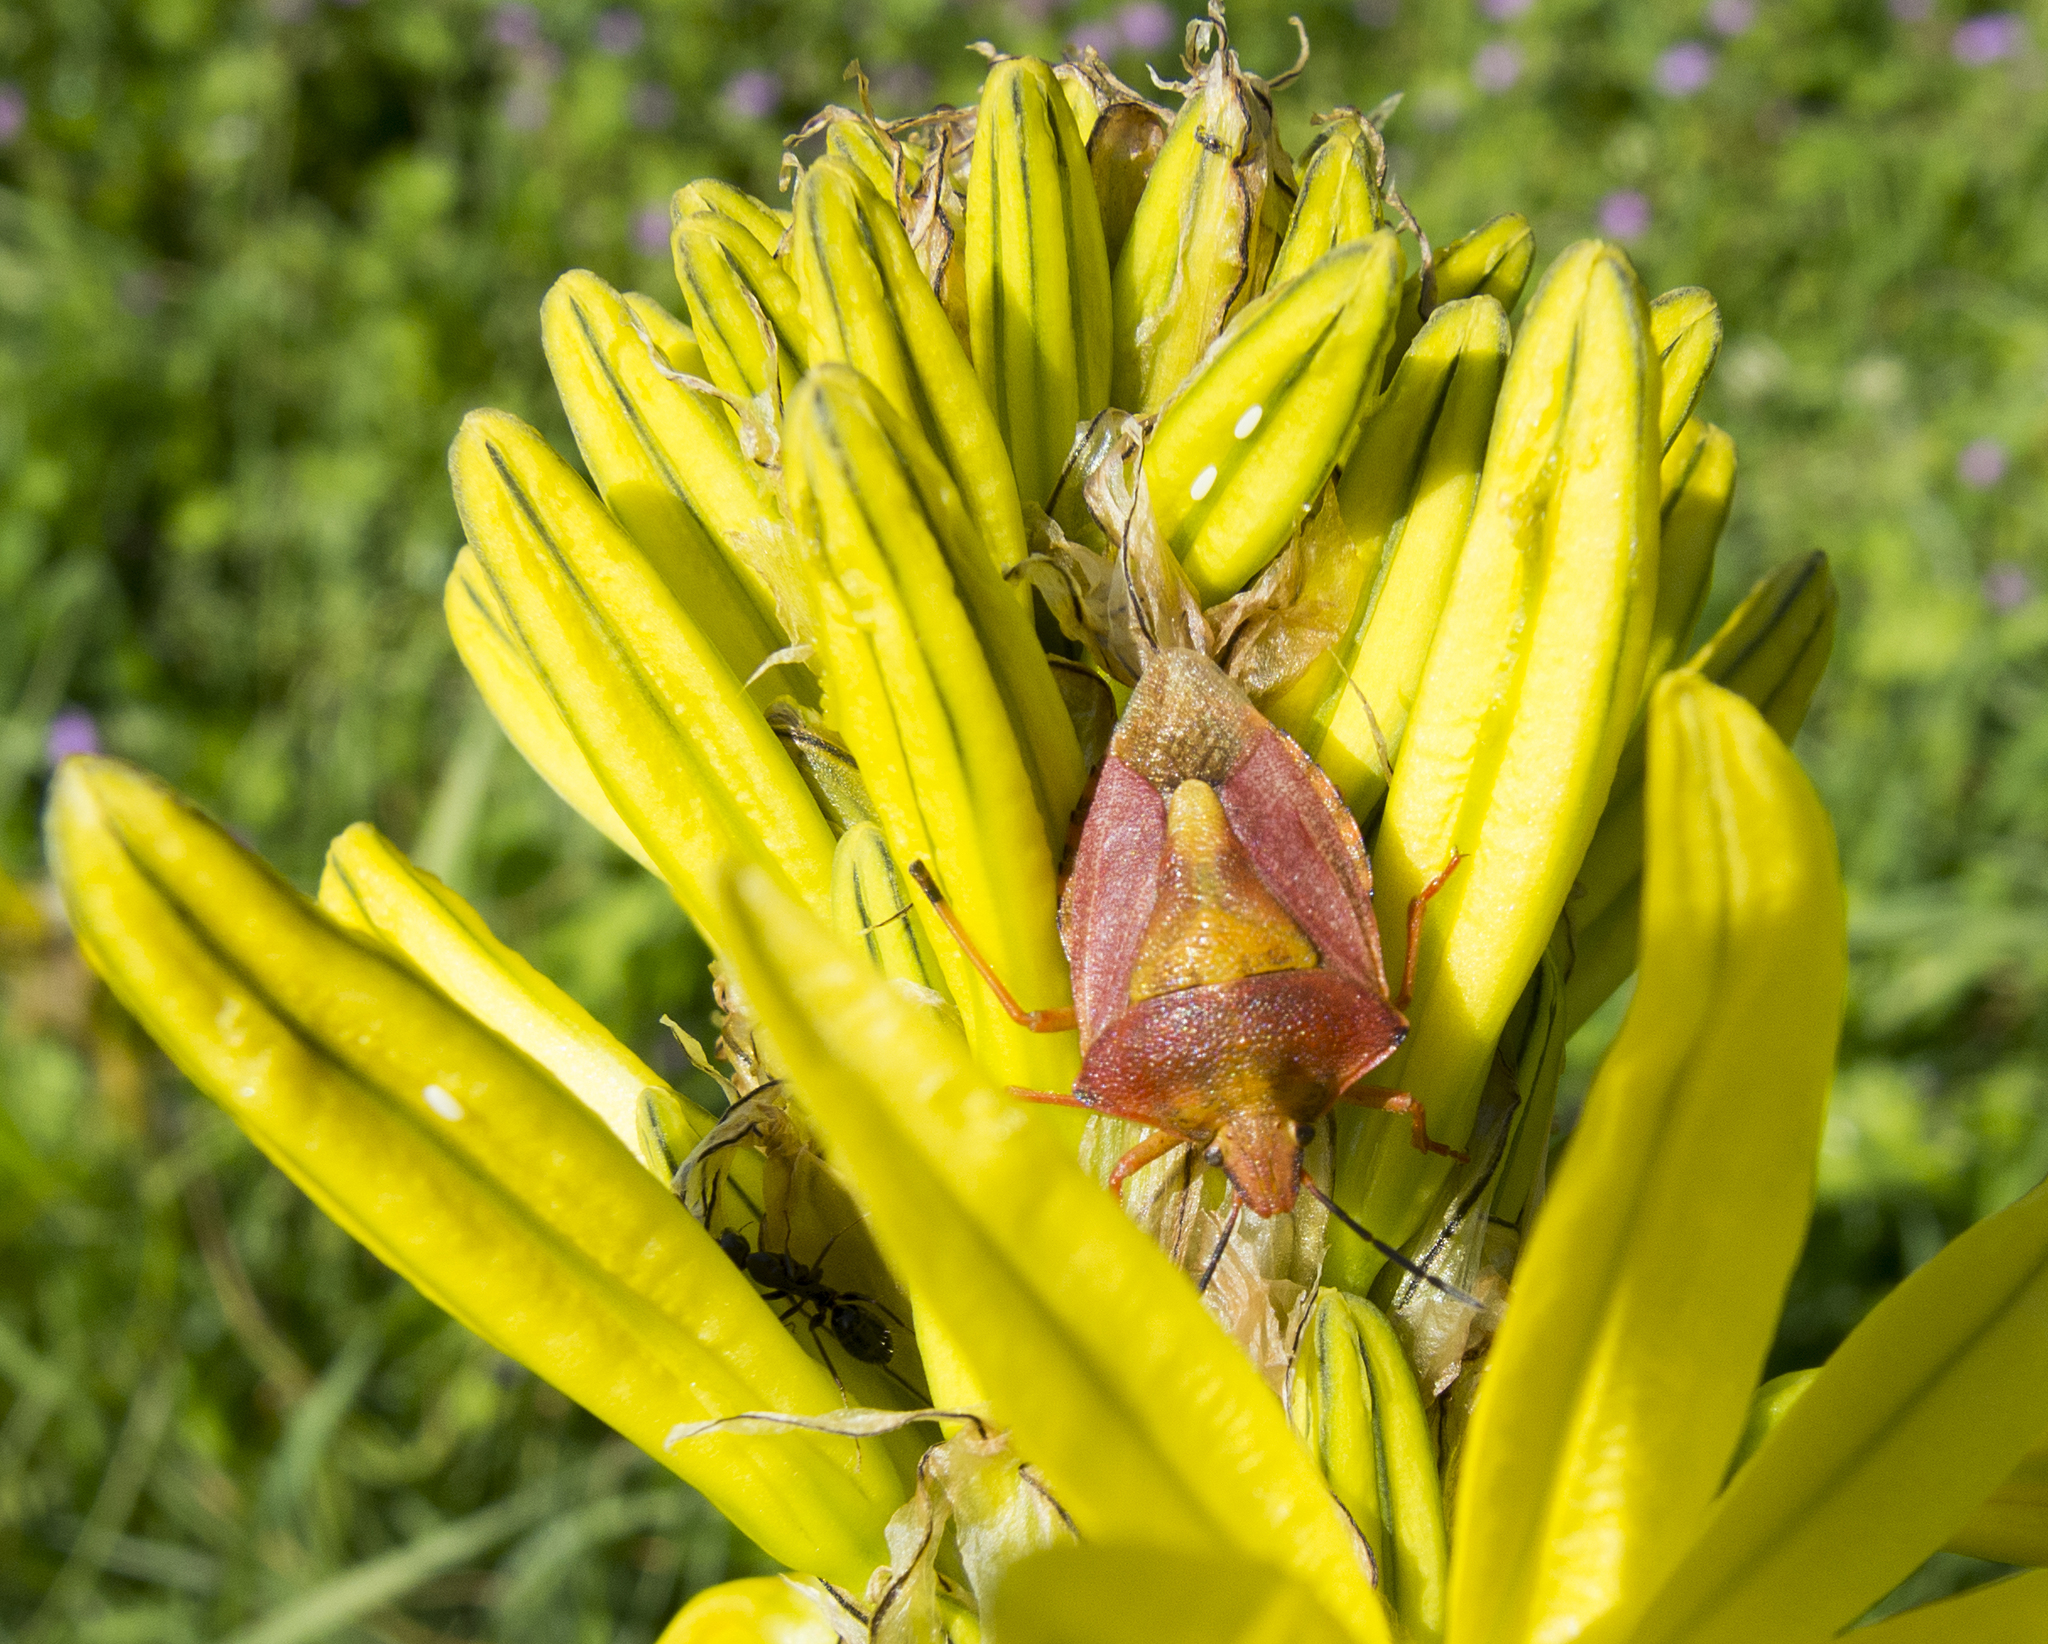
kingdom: Animalia
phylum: Arthropoda
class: Insecta
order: Hemiptera
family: Pentatomidae
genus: Carpocoris
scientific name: Carpocoris purpureipennis
